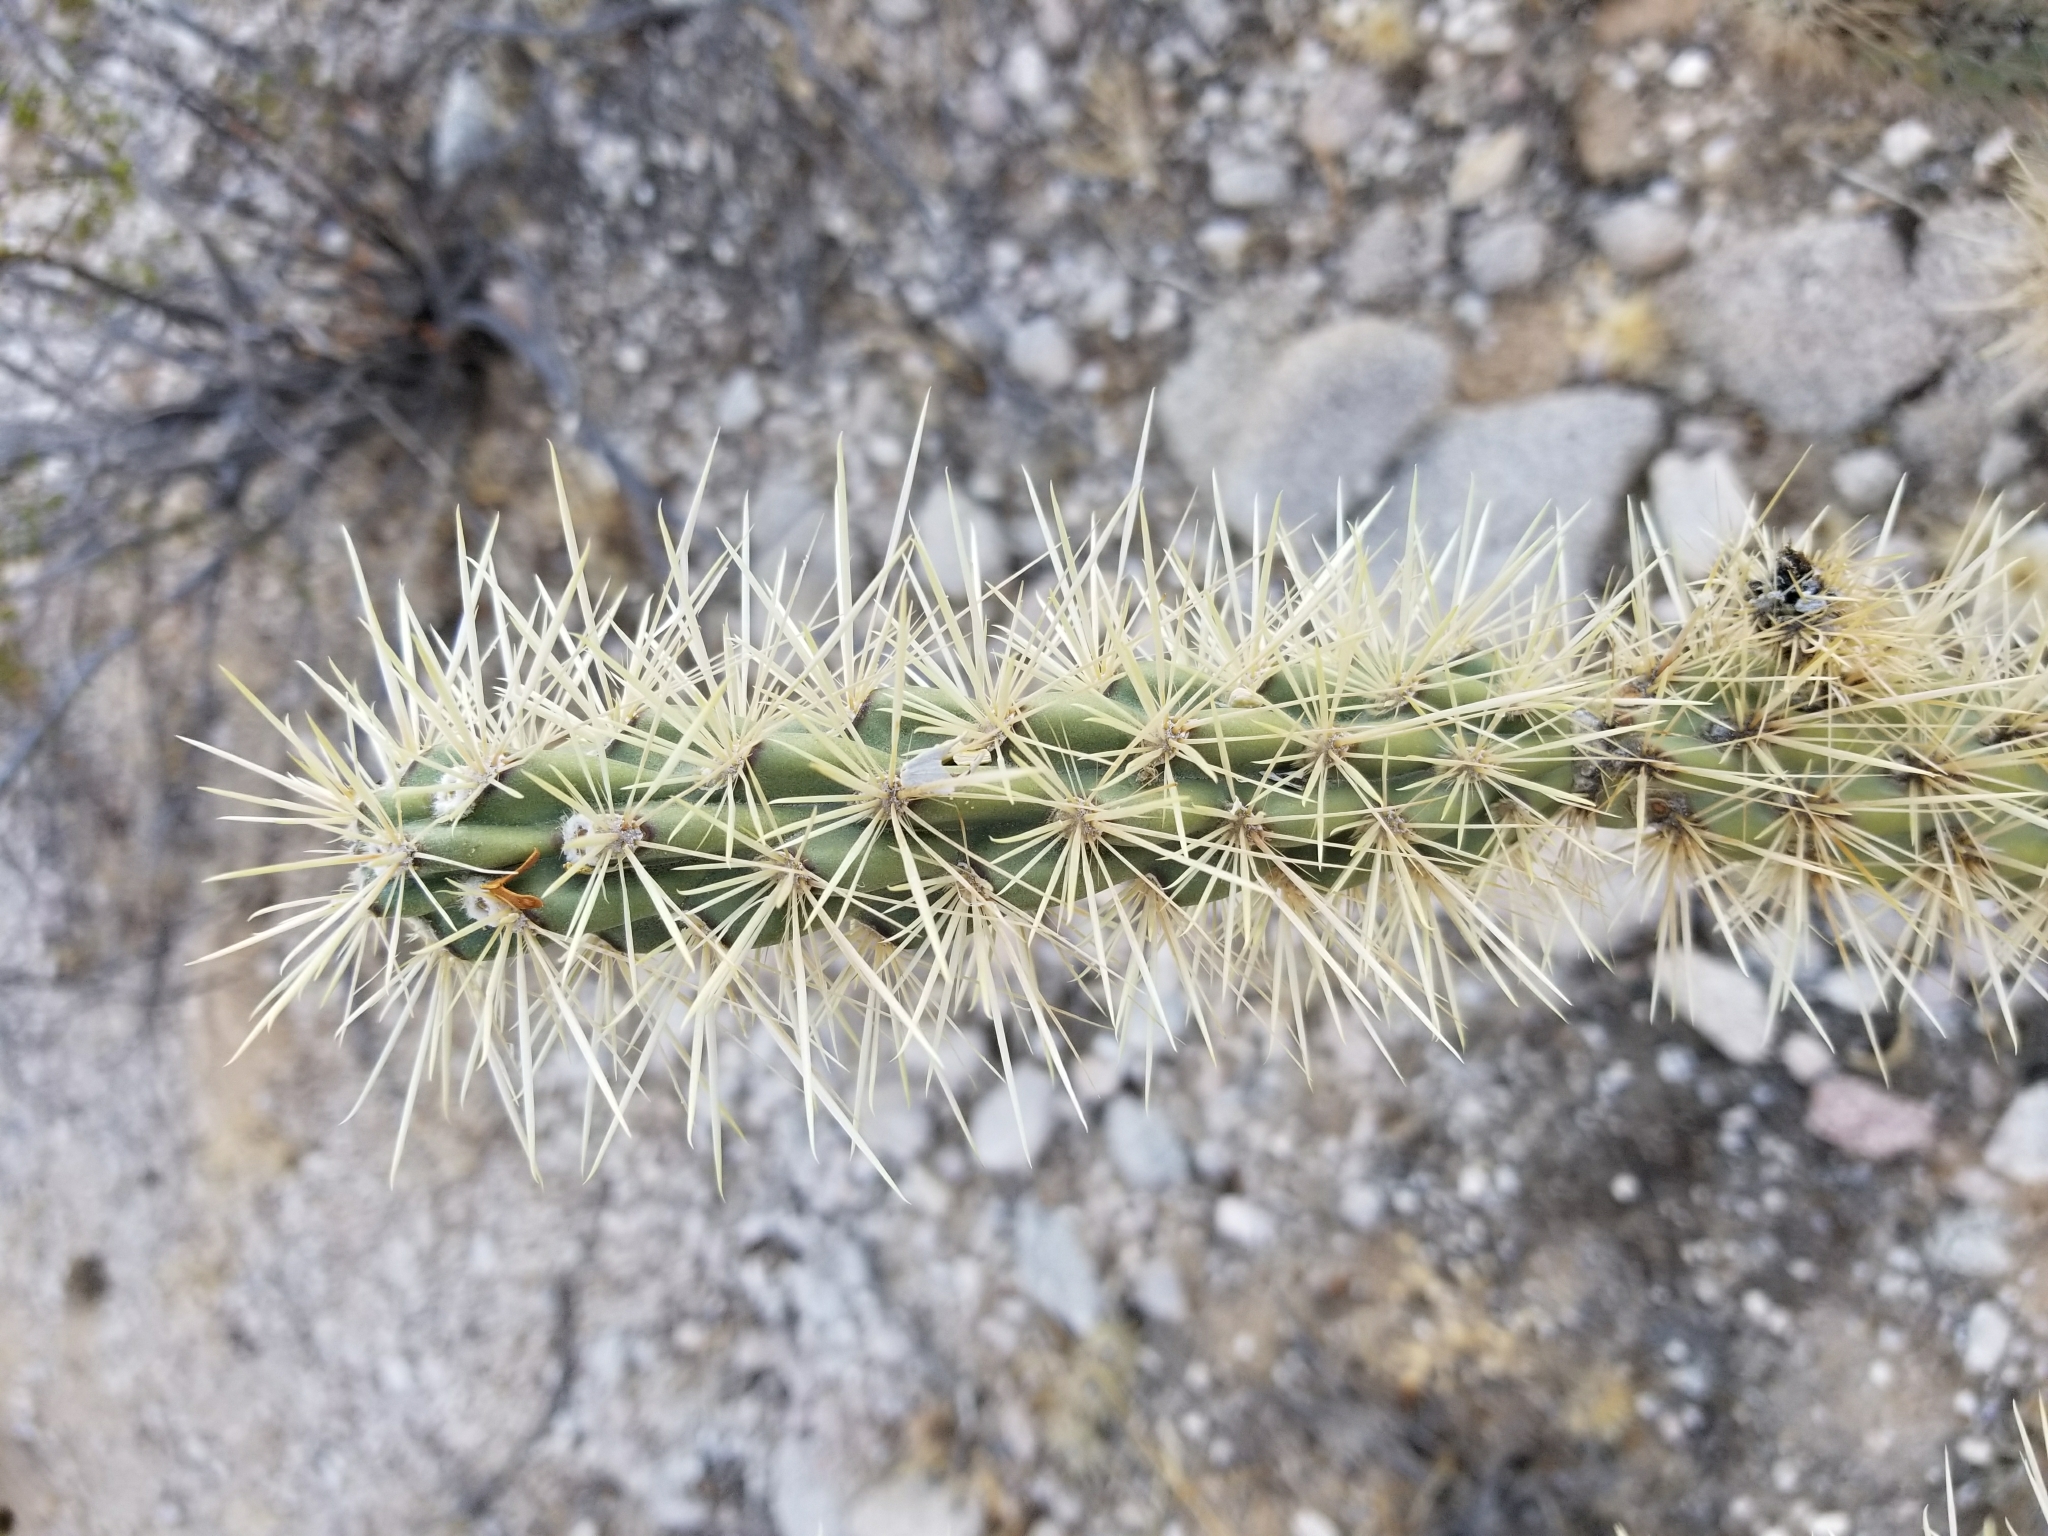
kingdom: Plantae
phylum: Tracheophyta
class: Magnoliopsida
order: Caryophyllales
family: Cactaceae
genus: Cylindropuntia
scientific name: Cylindropuntia acanthocarpa
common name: Buckhorn cholla
